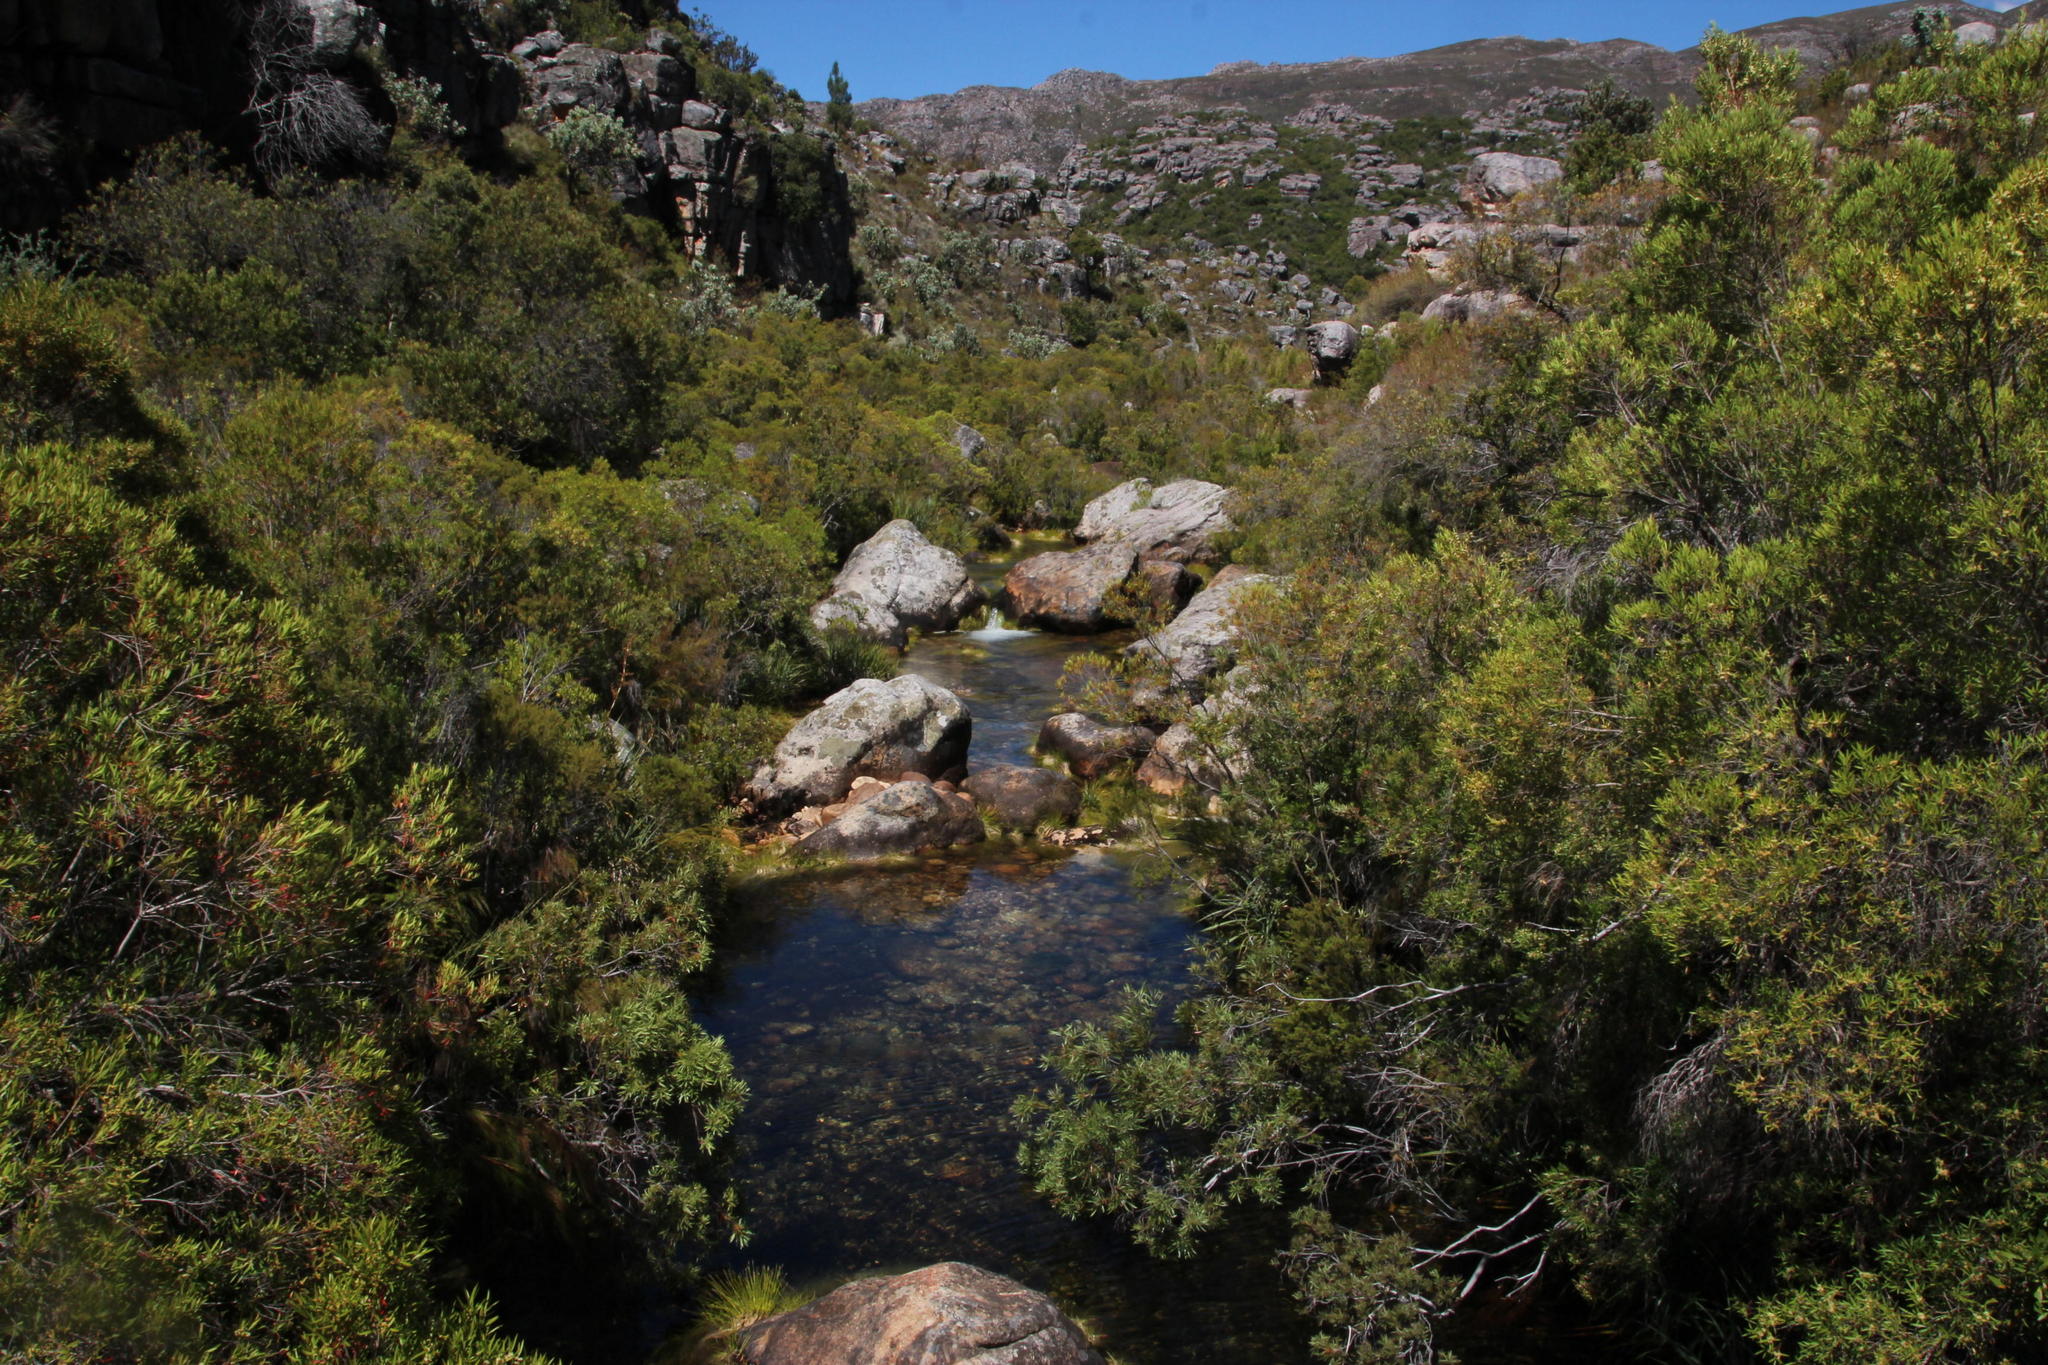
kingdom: Plantae
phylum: Tracheophyta
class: Magnoliopsida
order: Myrtales
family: Myrtaceae
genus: Callistemon
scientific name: Callistemon lanceolatus
